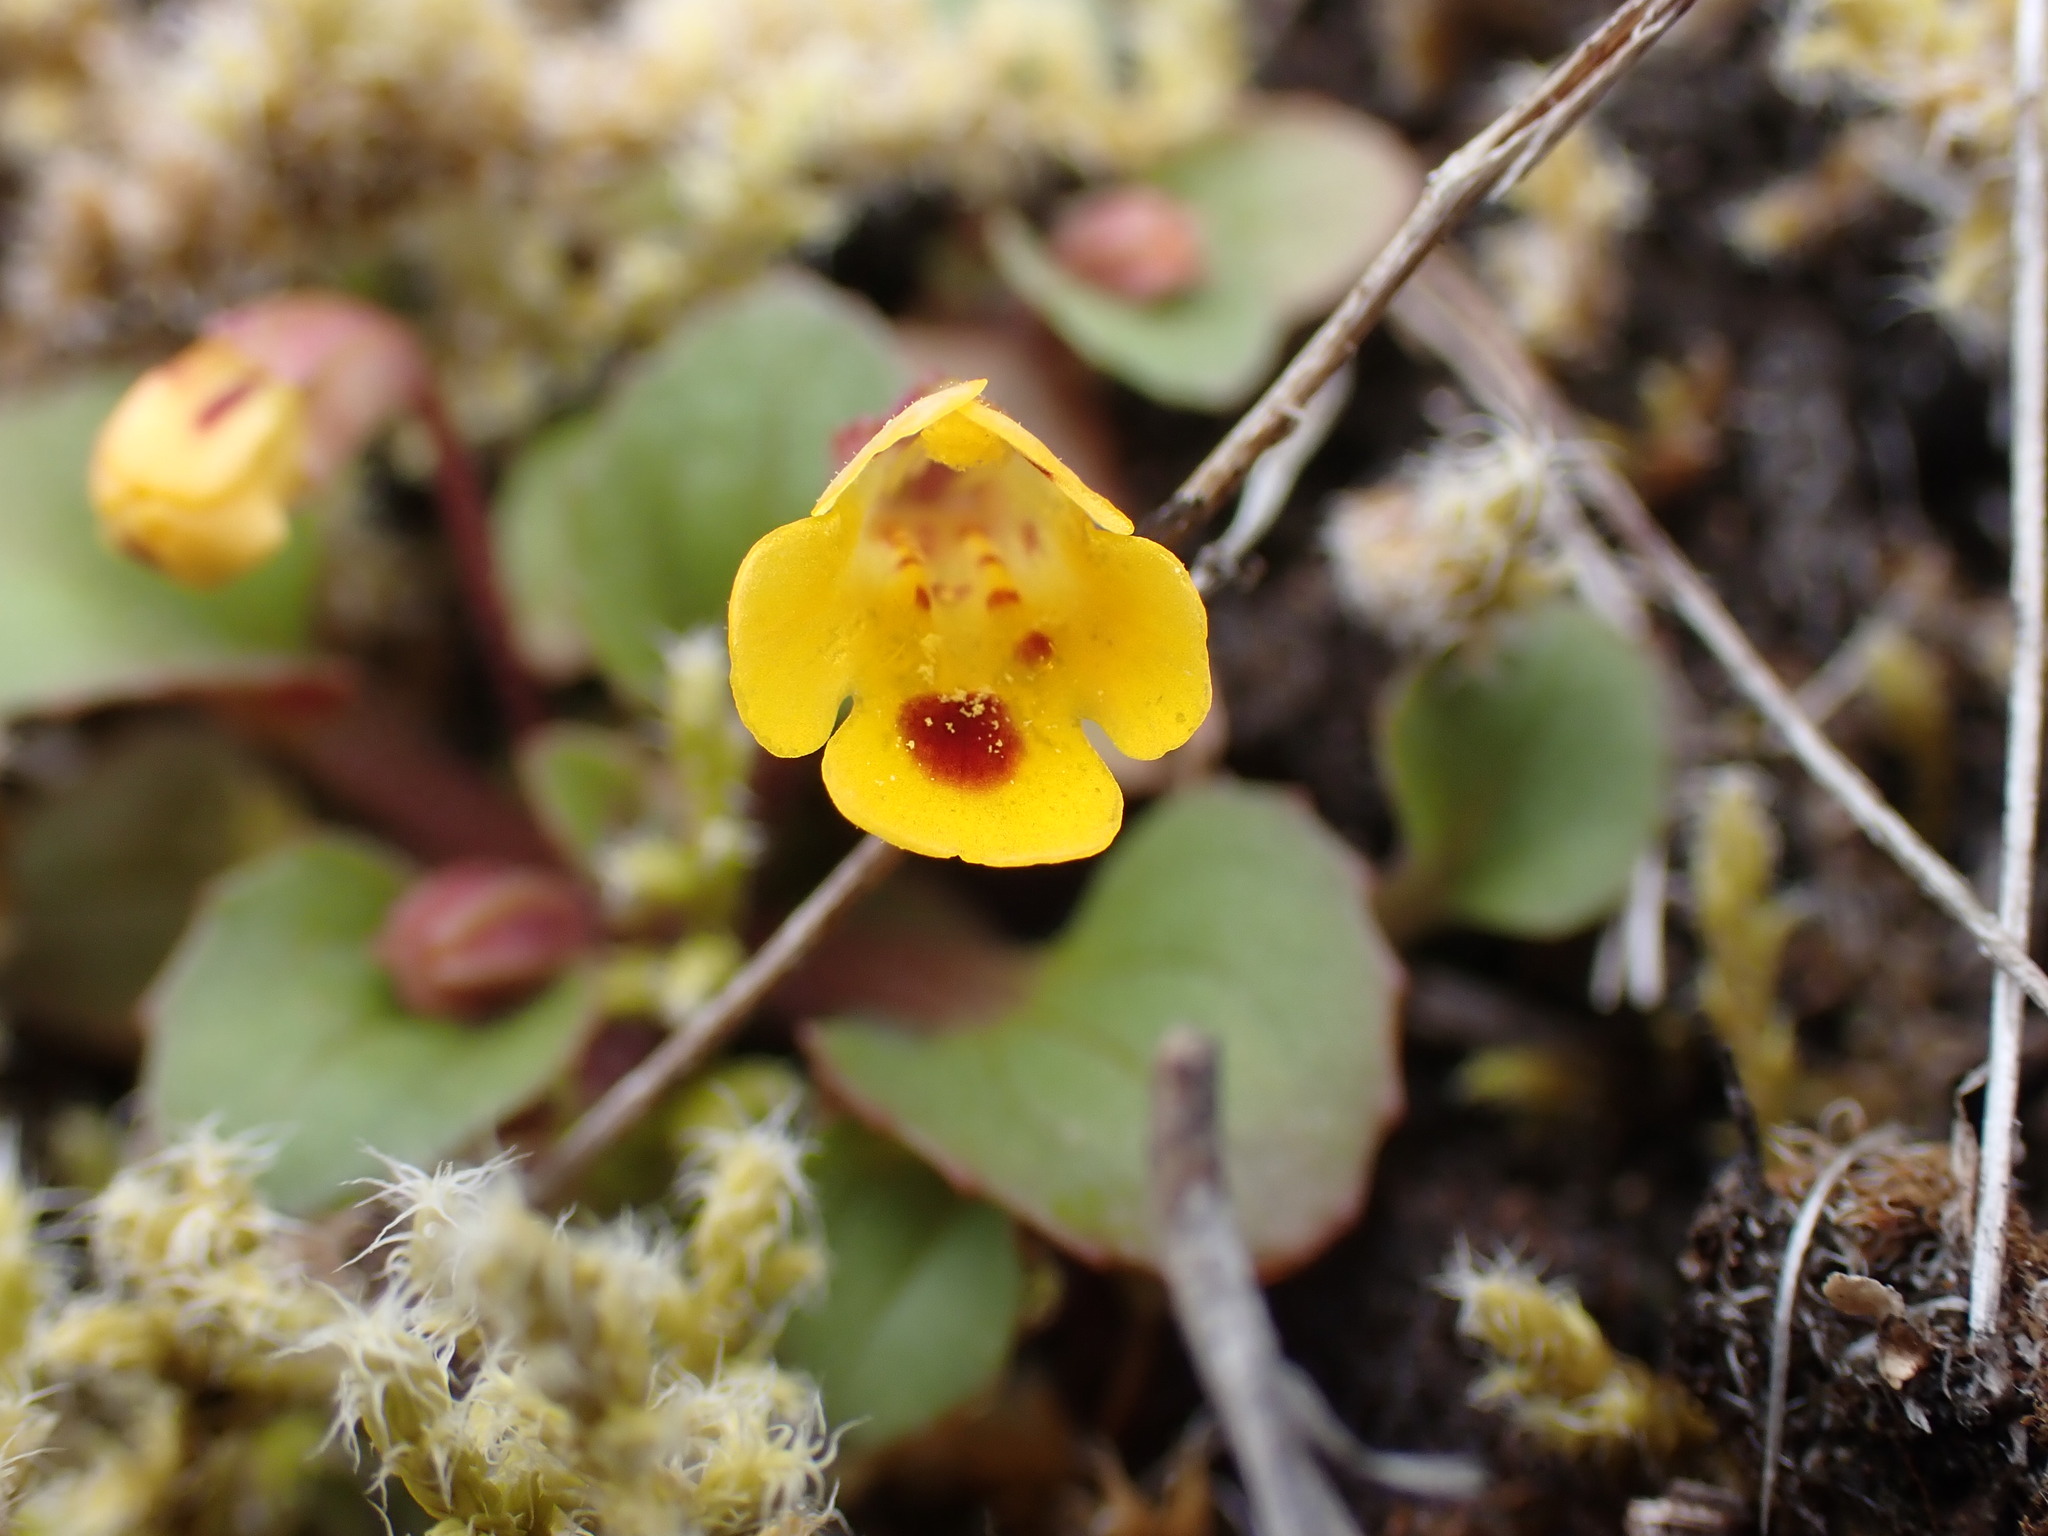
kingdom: Plantae
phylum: Tracheophyta
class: Magnoliopsida
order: Lamiales
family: Phrymaceae
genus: Erythranthe
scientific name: Erythranthe alsinoides
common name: Chickweed monkeyflower
